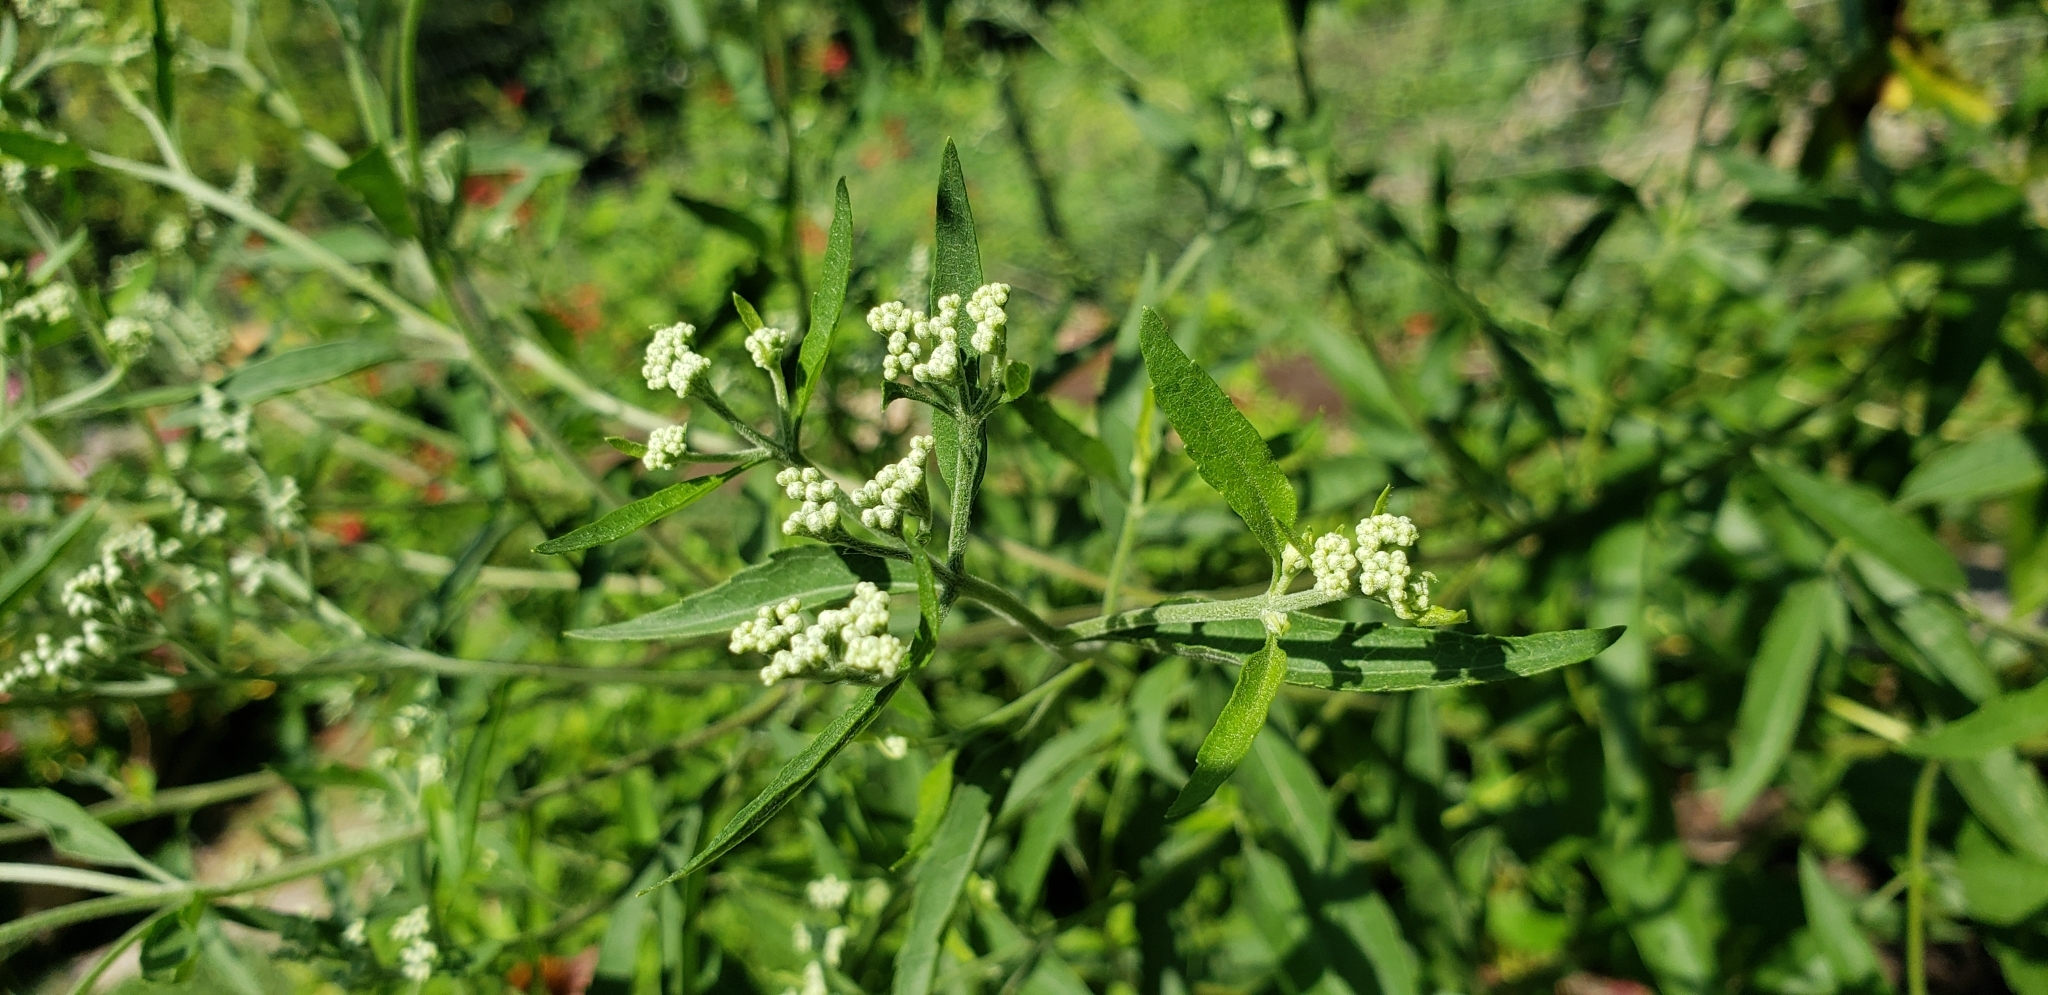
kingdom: Plantae
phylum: Tracheophyta
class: Magnoliopsida
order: Asterales
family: Asteraceae
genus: Eupatorium
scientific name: Eupatorium serotinum
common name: Late boneset
